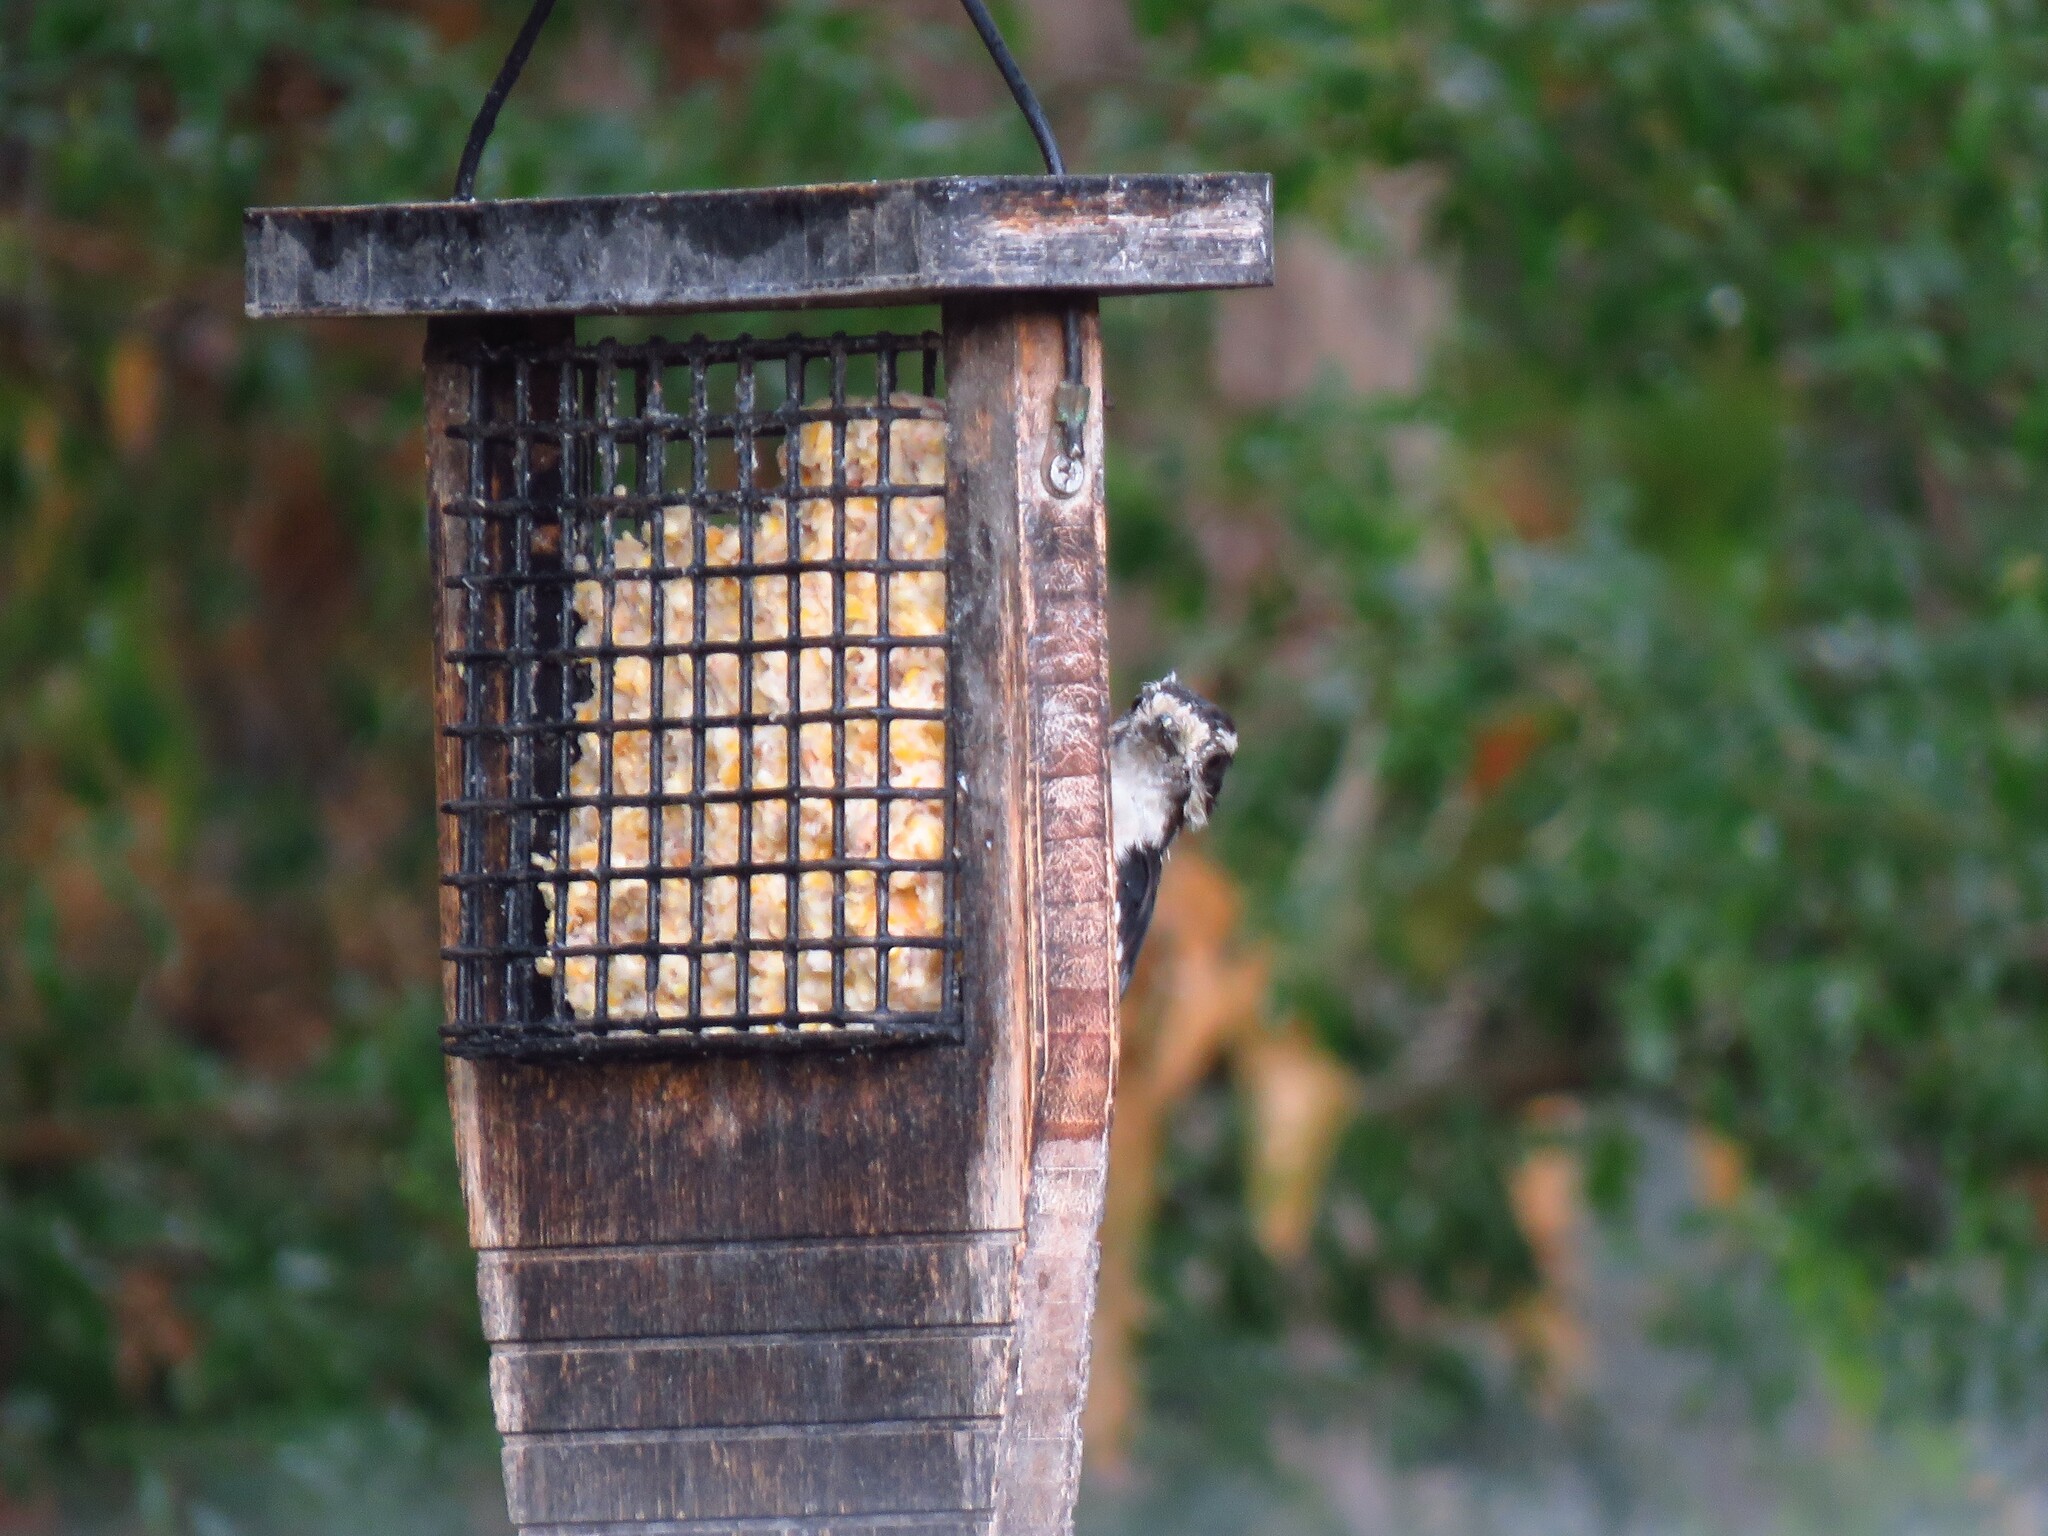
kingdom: Animalia
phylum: Chordata
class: Aves
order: Piciformes
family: Picidae
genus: Dryobates
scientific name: Dryobates pubescens
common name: Downy woodpecker
